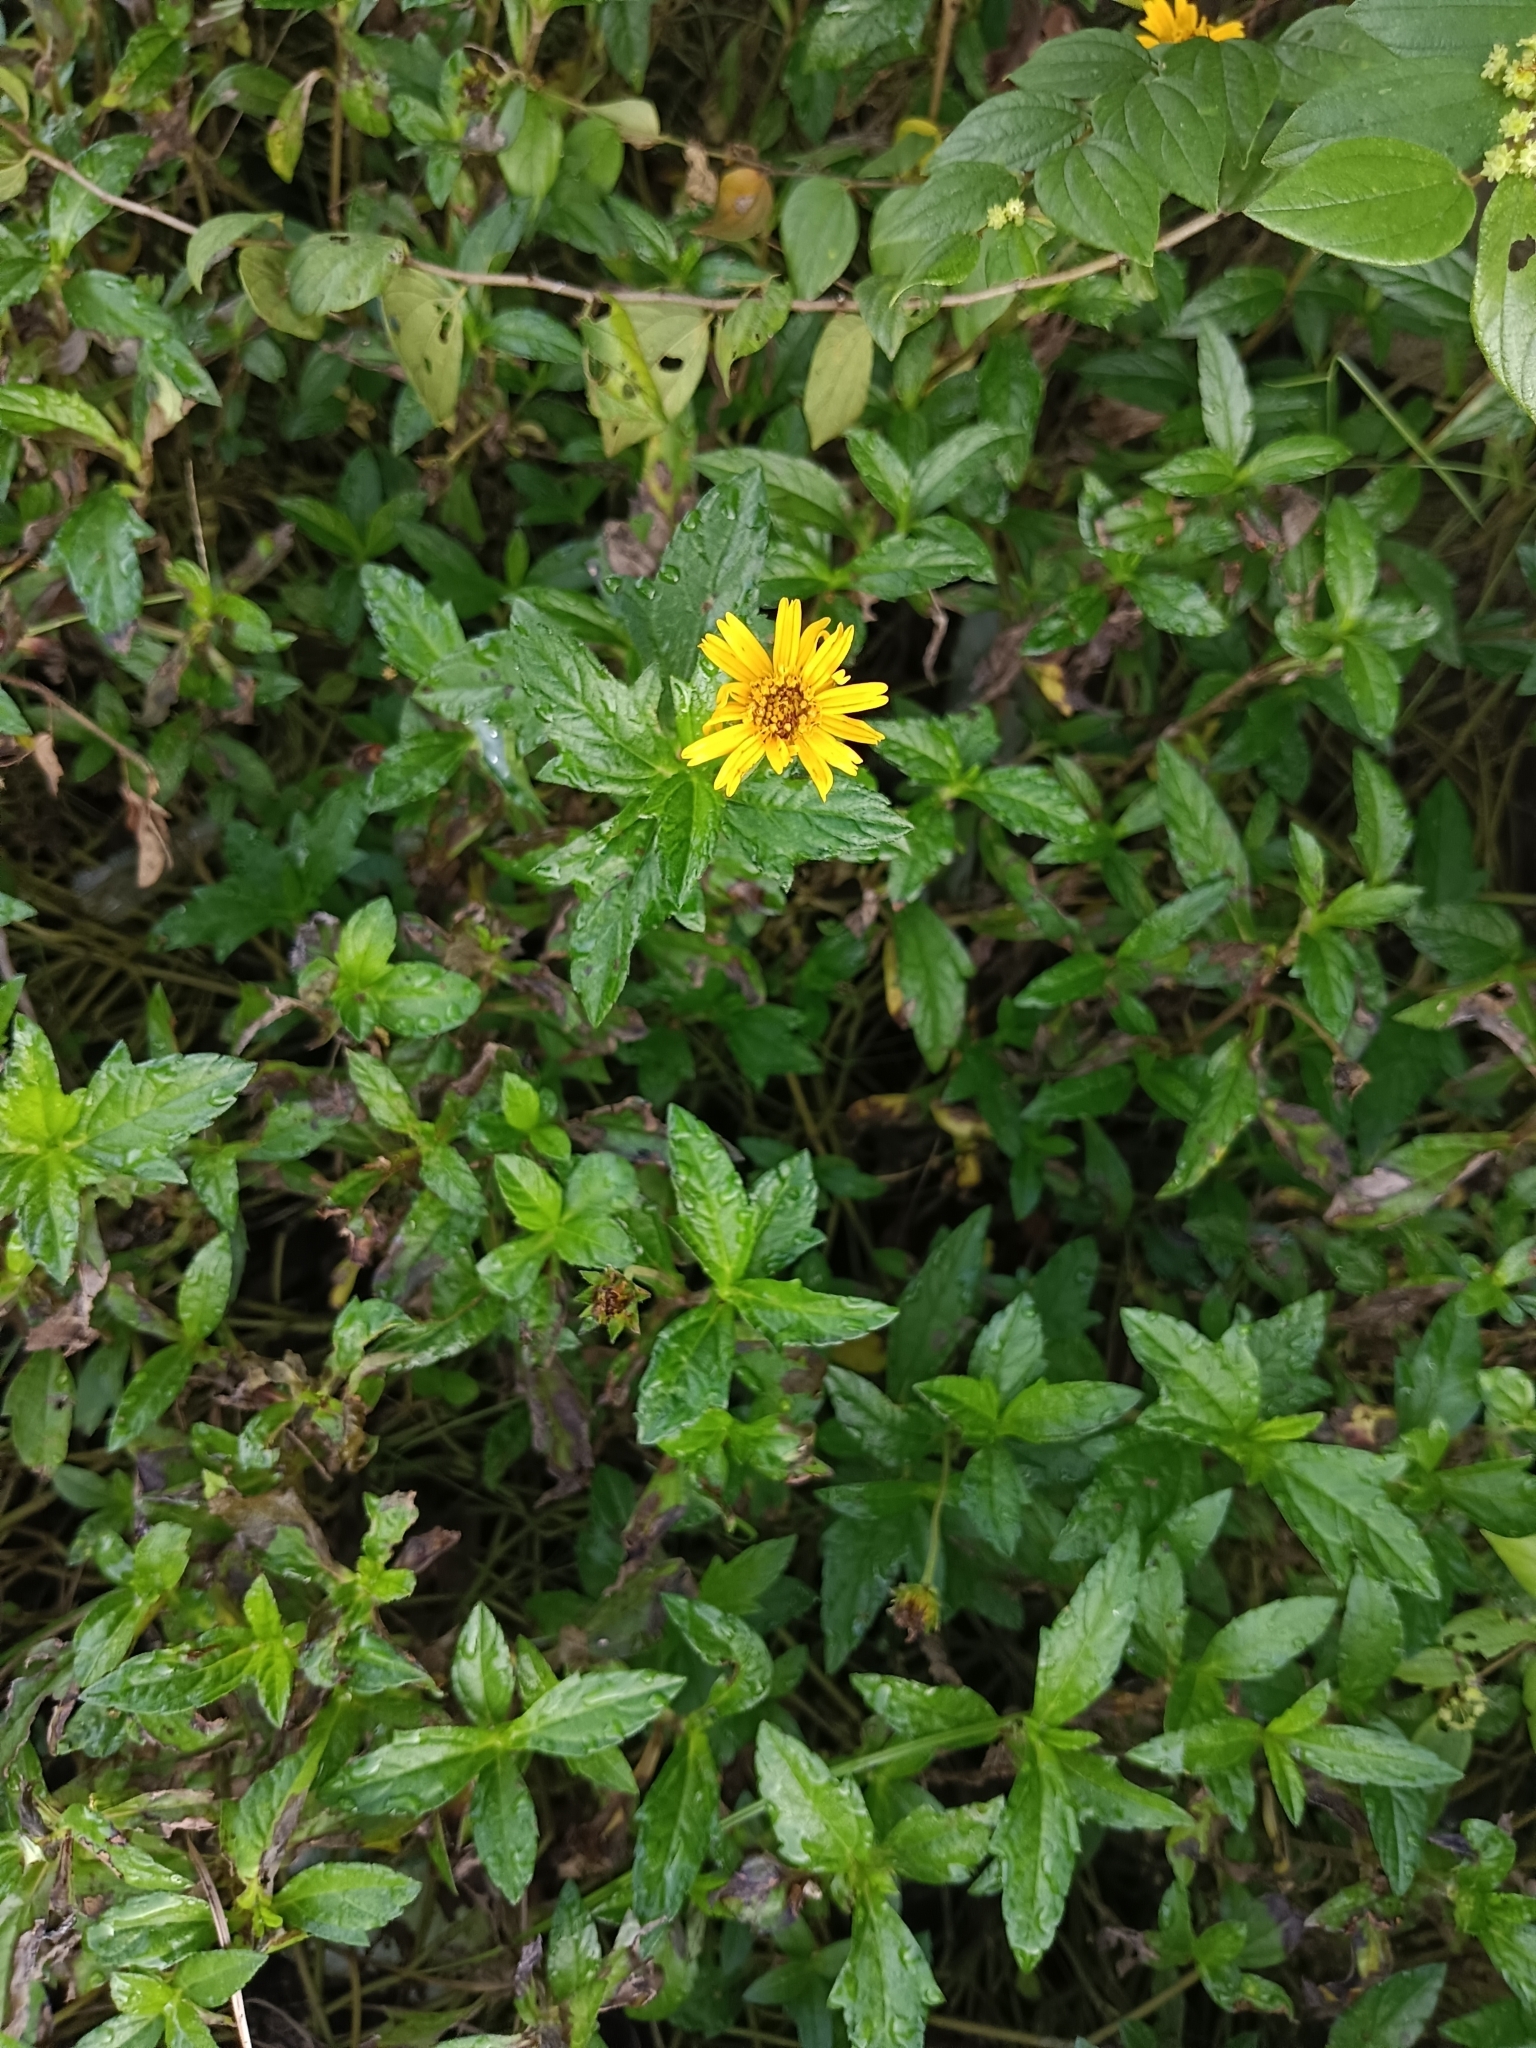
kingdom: Plantae
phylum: Tracheophyta
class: Magnoliopsida
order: Asterales
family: Asteraceae
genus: Sphagneticola
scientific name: Sphagneticola trilobata
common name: Bay biscayne creeping-oxeye
